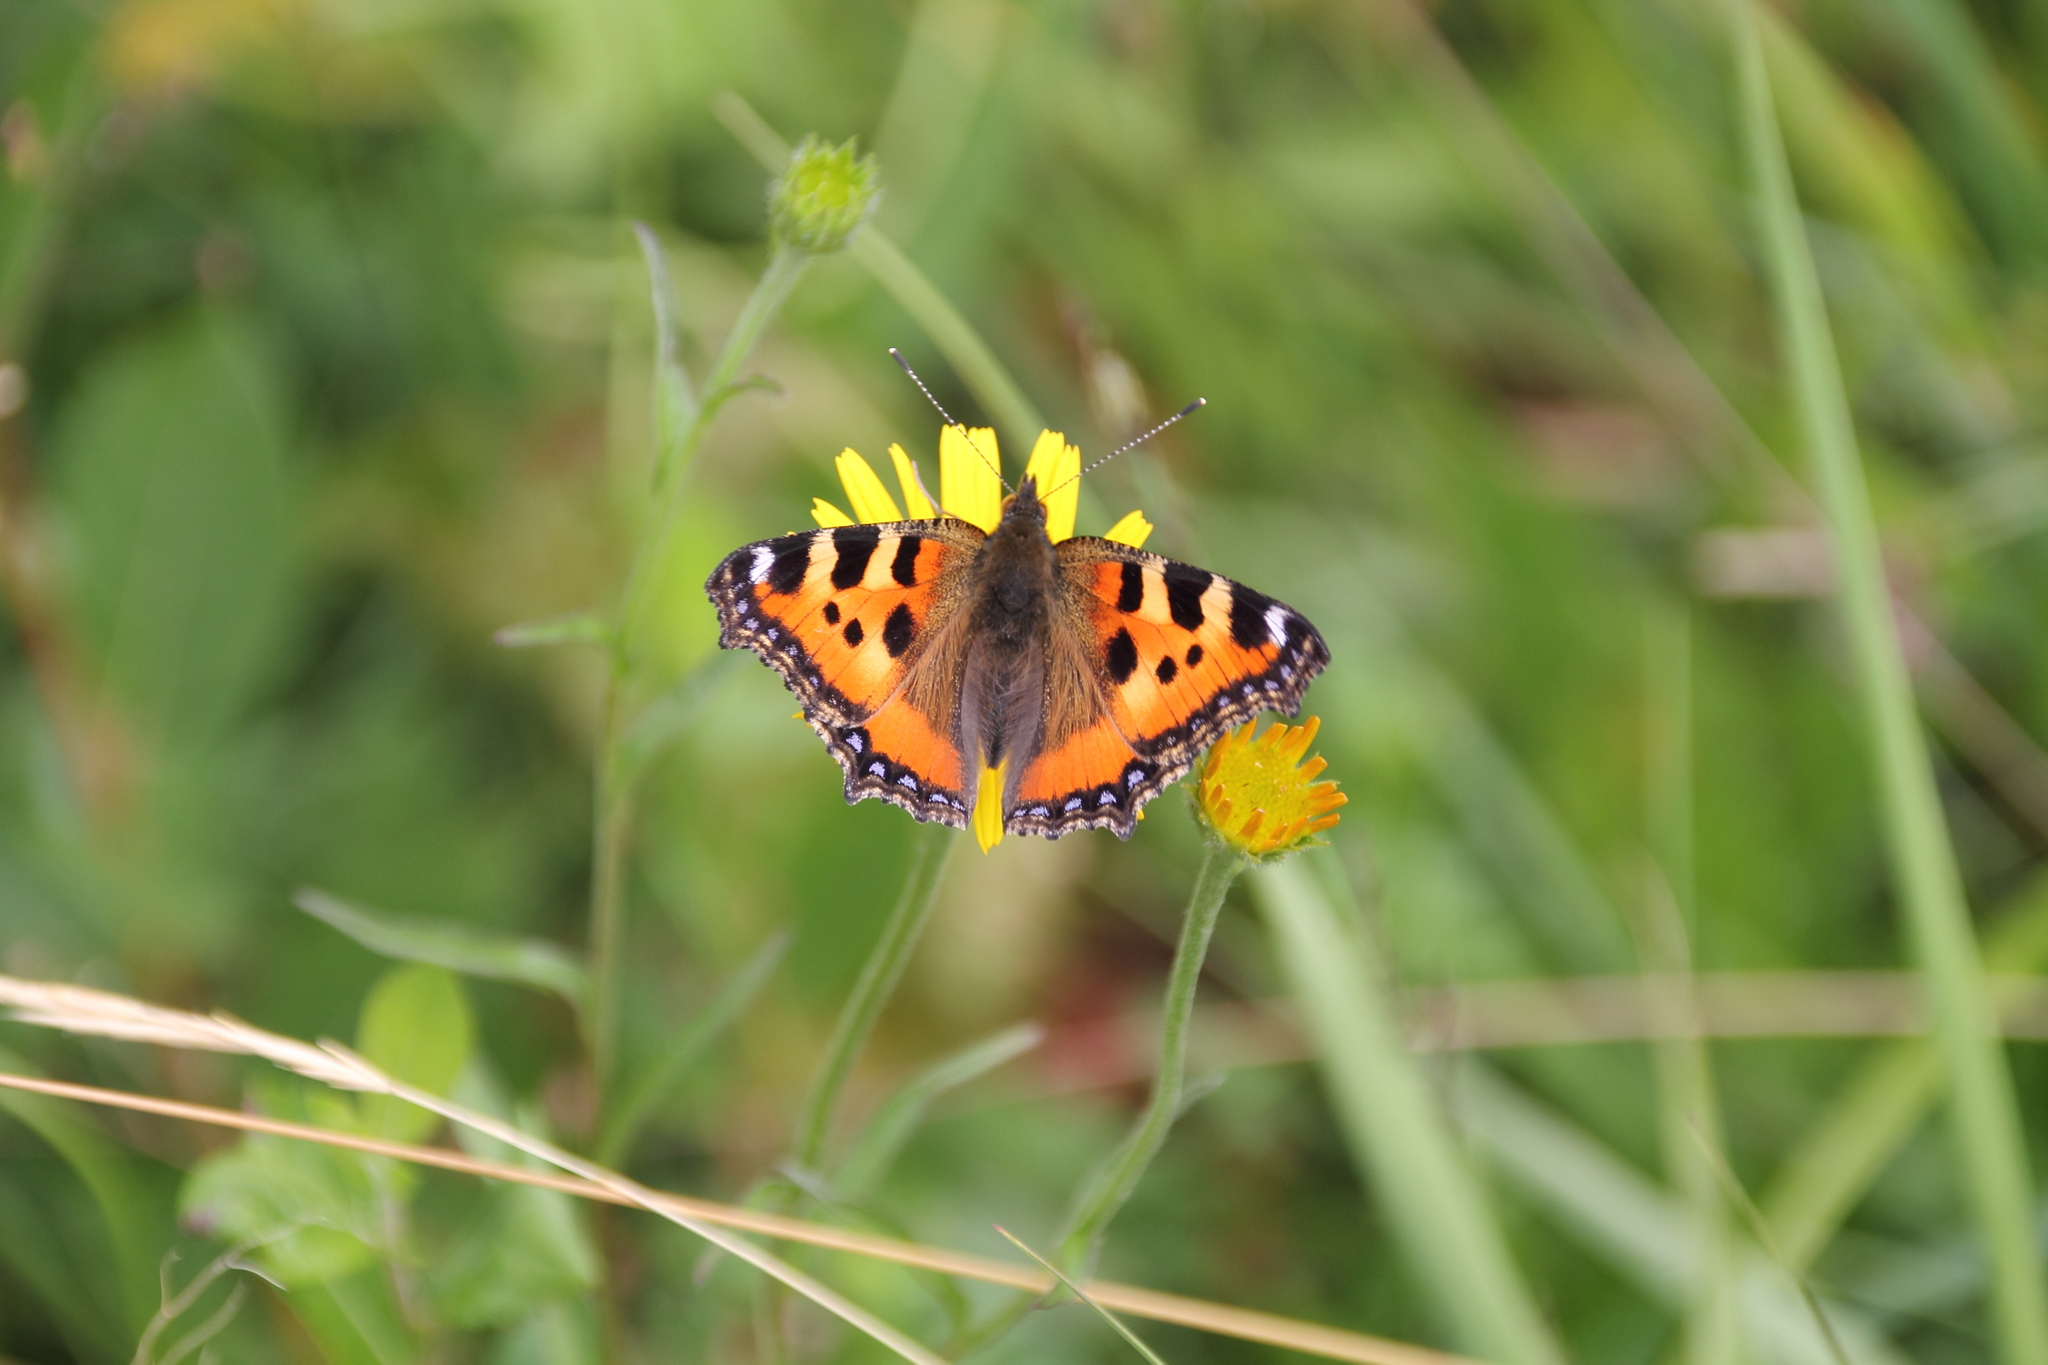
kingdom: Animalia
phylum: Arthropoda
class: Insecta
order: Lepidoptera
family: Nymphalidae
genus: Aglais
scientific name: Aglais urticae
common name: Small tortoiseshell
